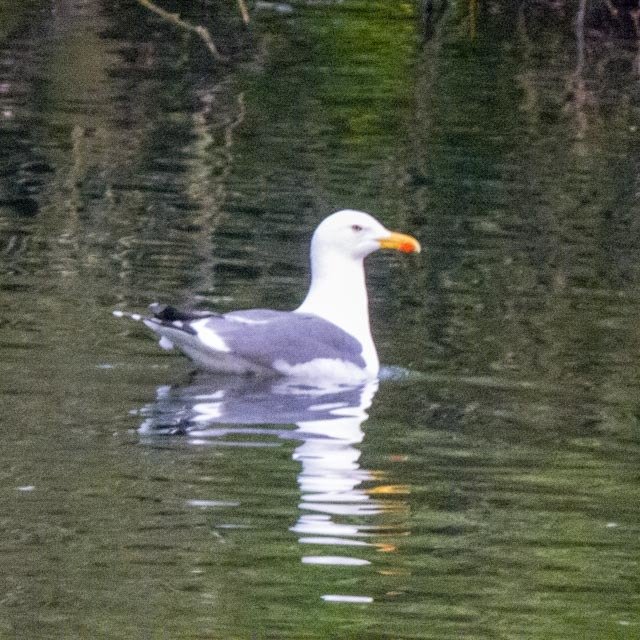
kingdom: Animalia
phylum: Chordata
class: Aves
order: Charadriiformes
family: Laridae
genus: Larus
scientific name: Larus fuscus
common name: Lesser black-backed gull
